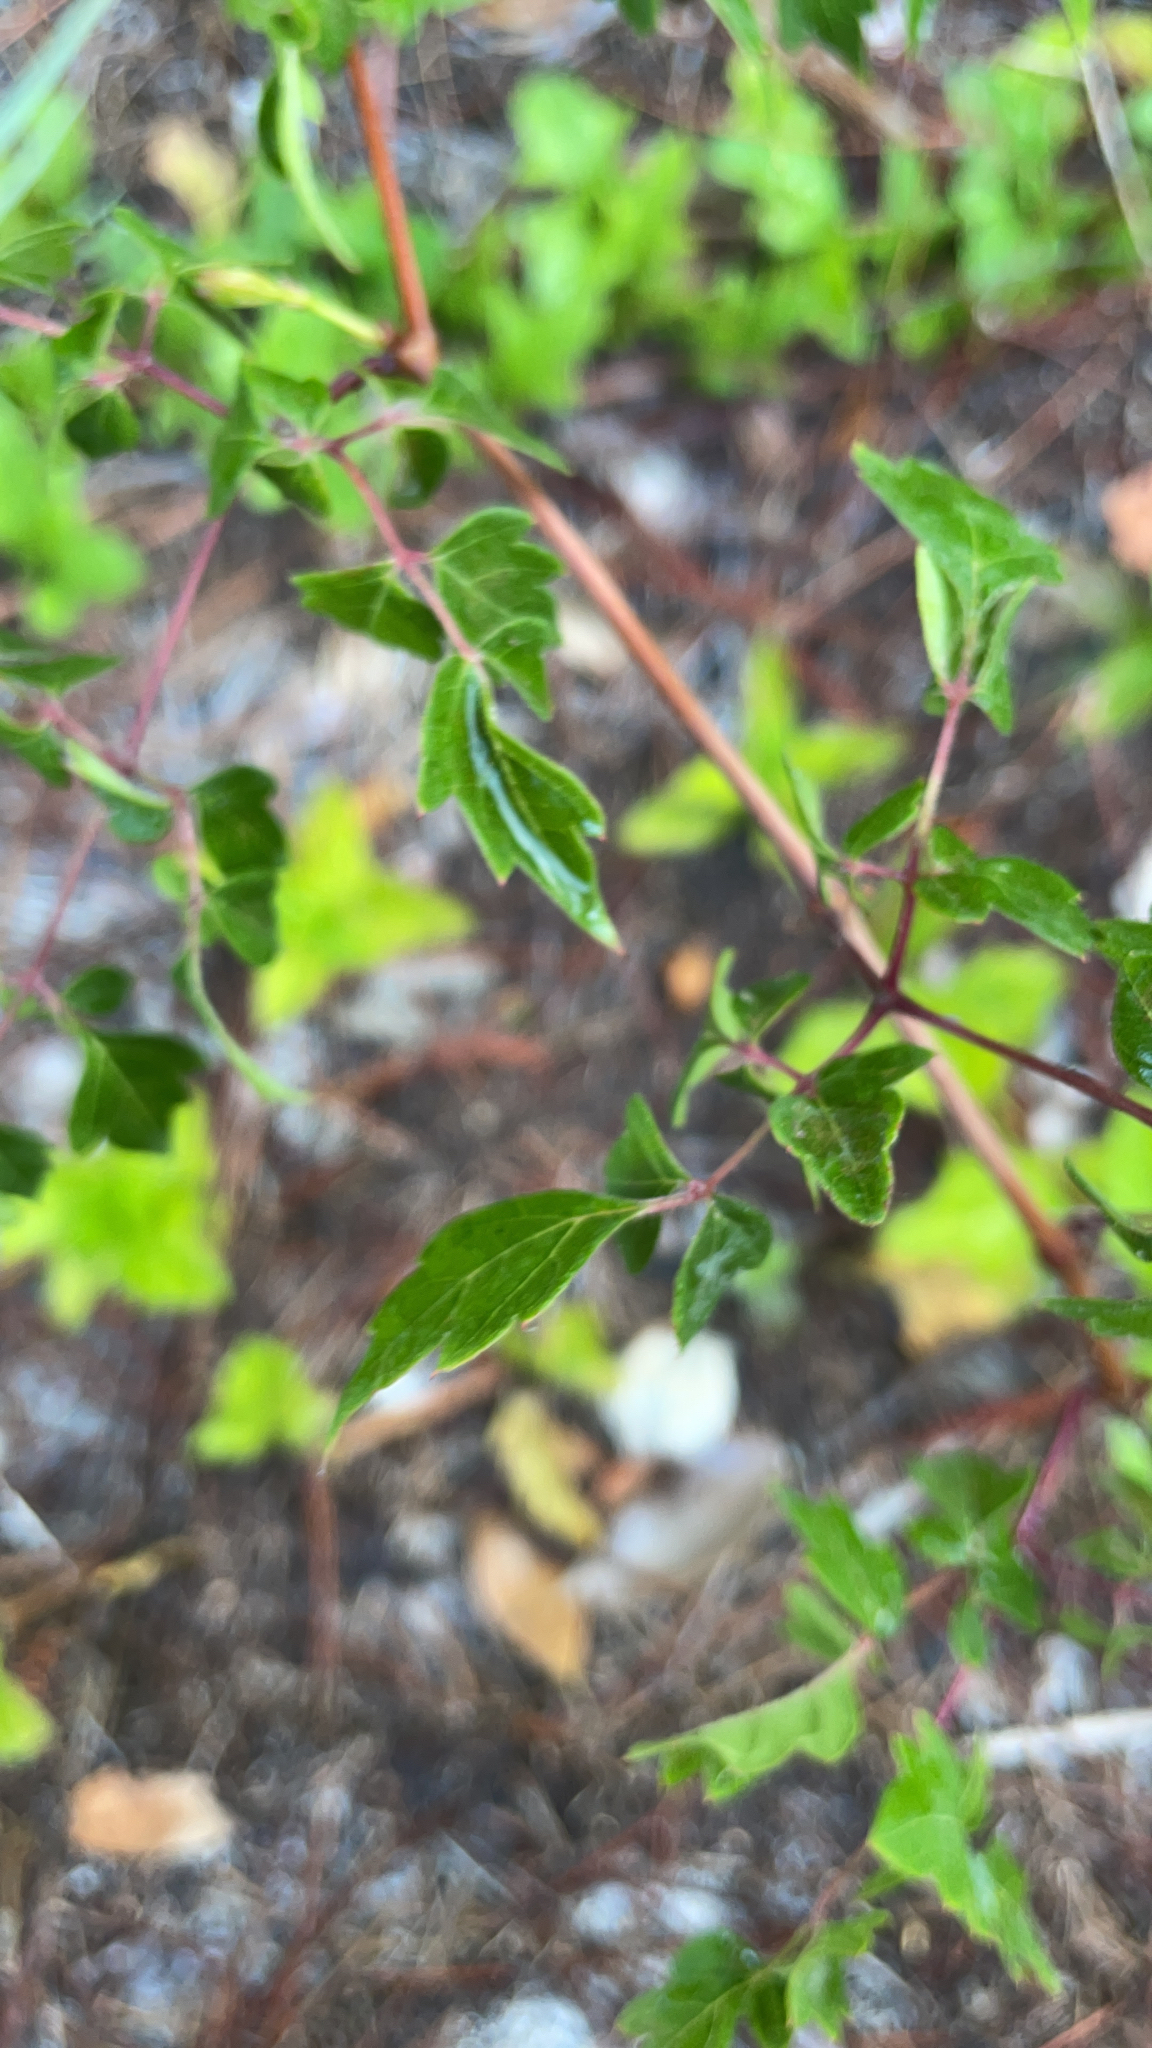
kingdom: Plantae
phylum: Tracheophyta
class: Magnoliopsida
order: Vitales
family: Vitaceae
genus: Nekemias
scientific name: Nekemias arborea
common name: Peppervine
